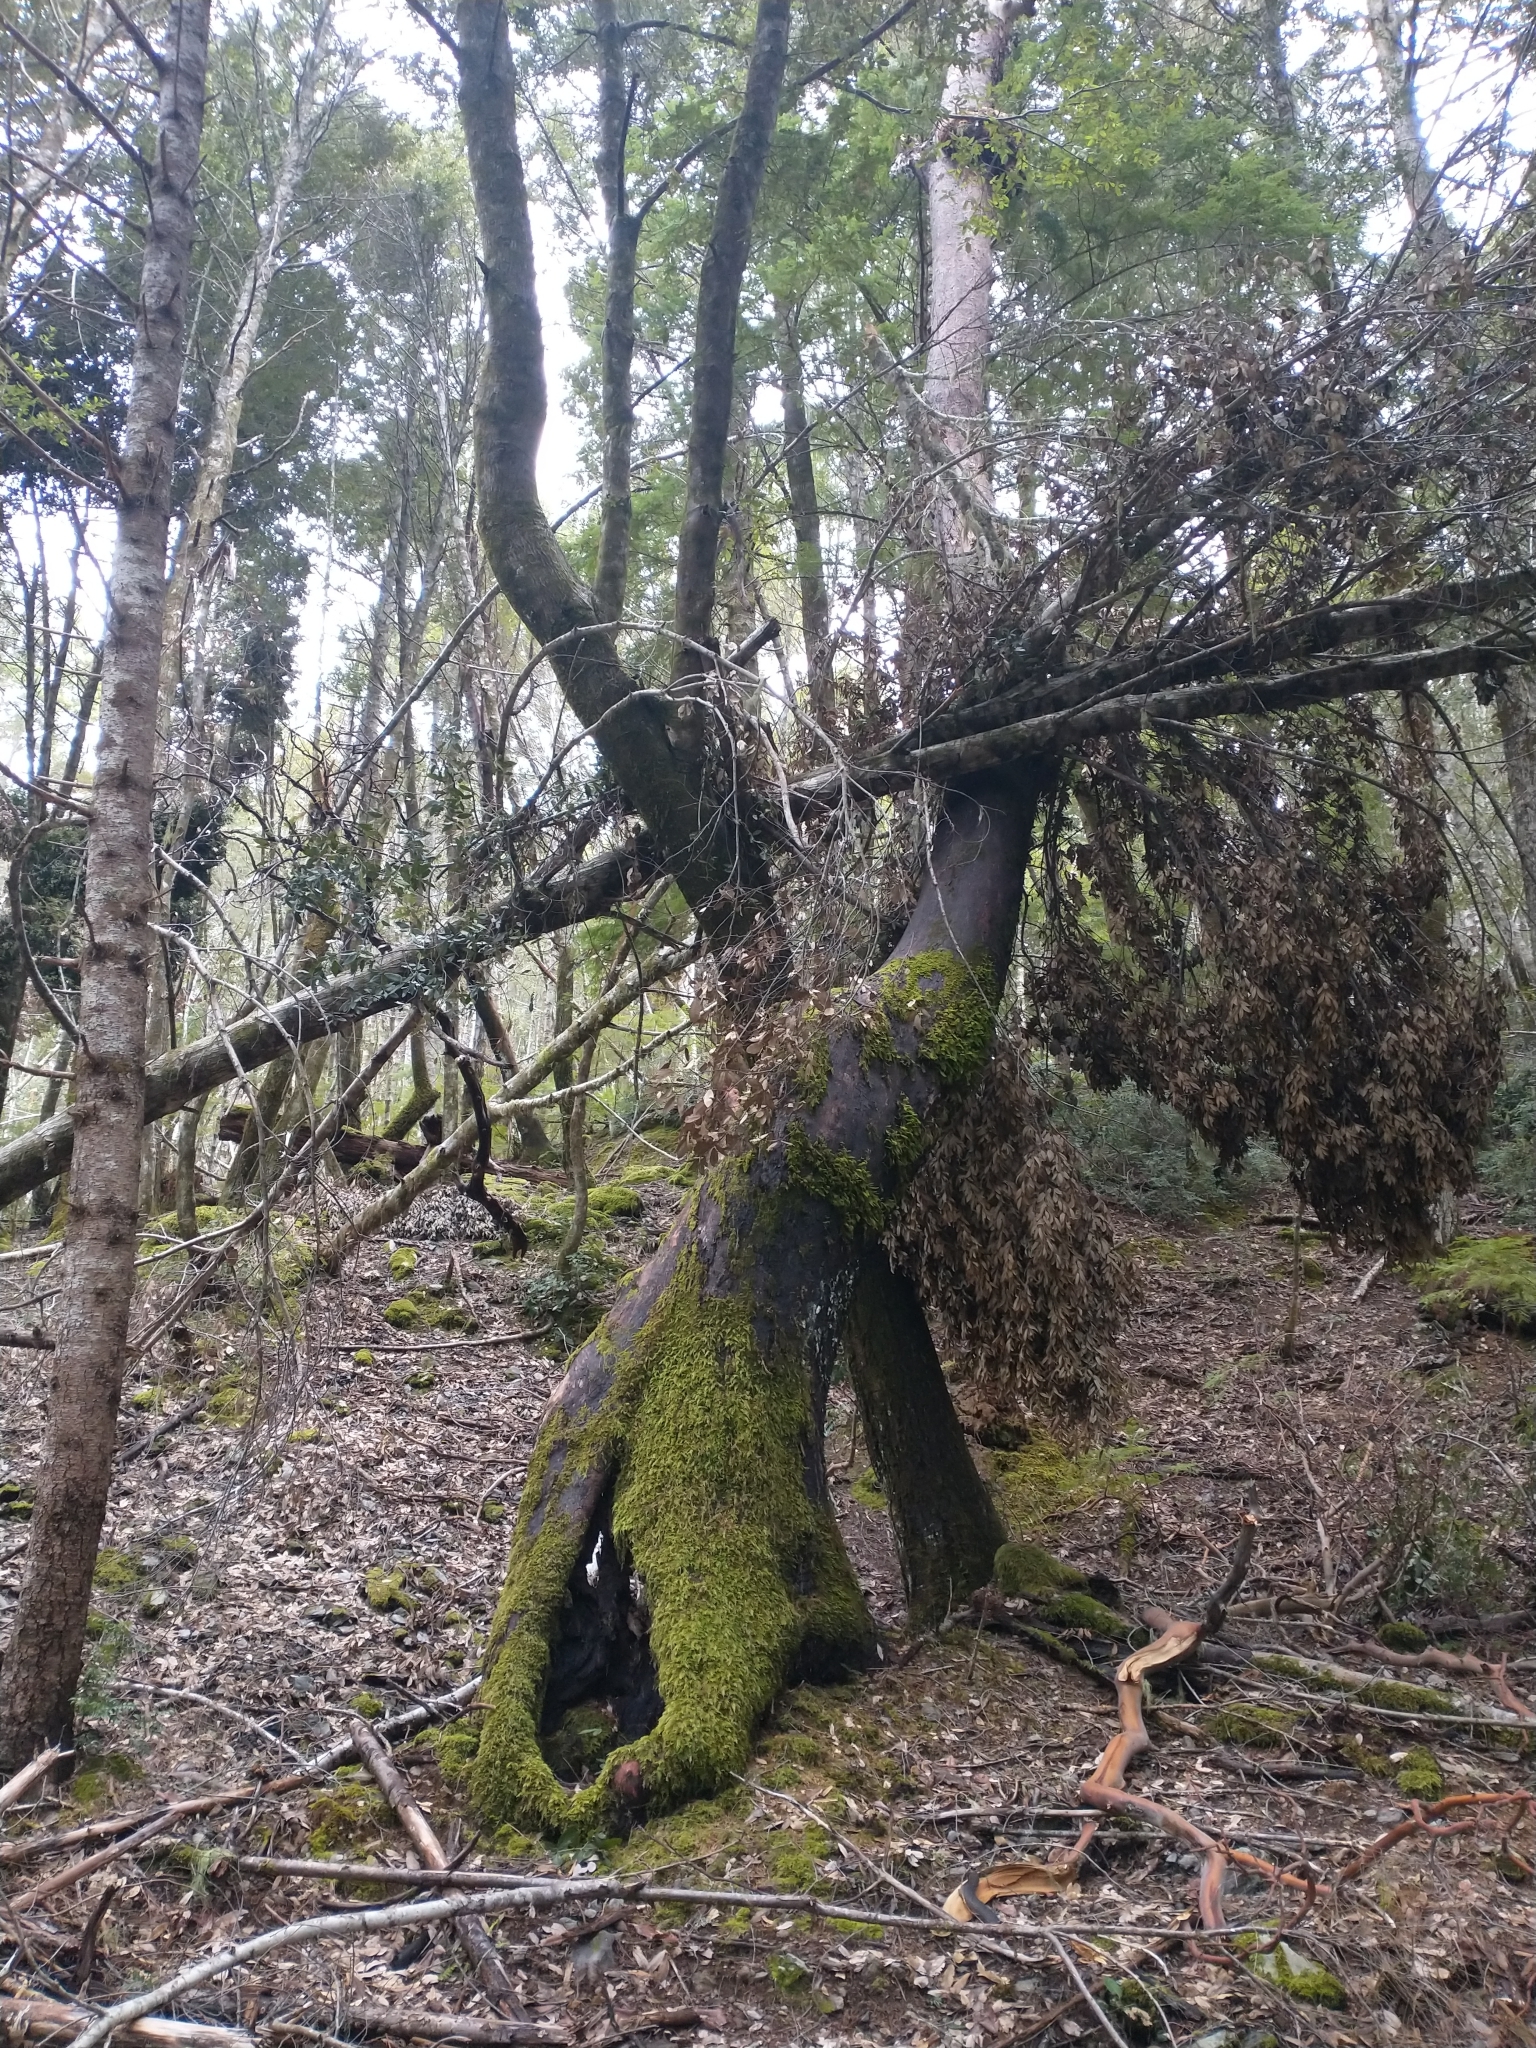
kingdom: Plantae
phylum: Tracheophyta
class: Magnoliopsida
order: Ericales
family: Ericaceae
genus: Arbutus
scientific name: Arbutus menziesii
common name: Pacific madrone
